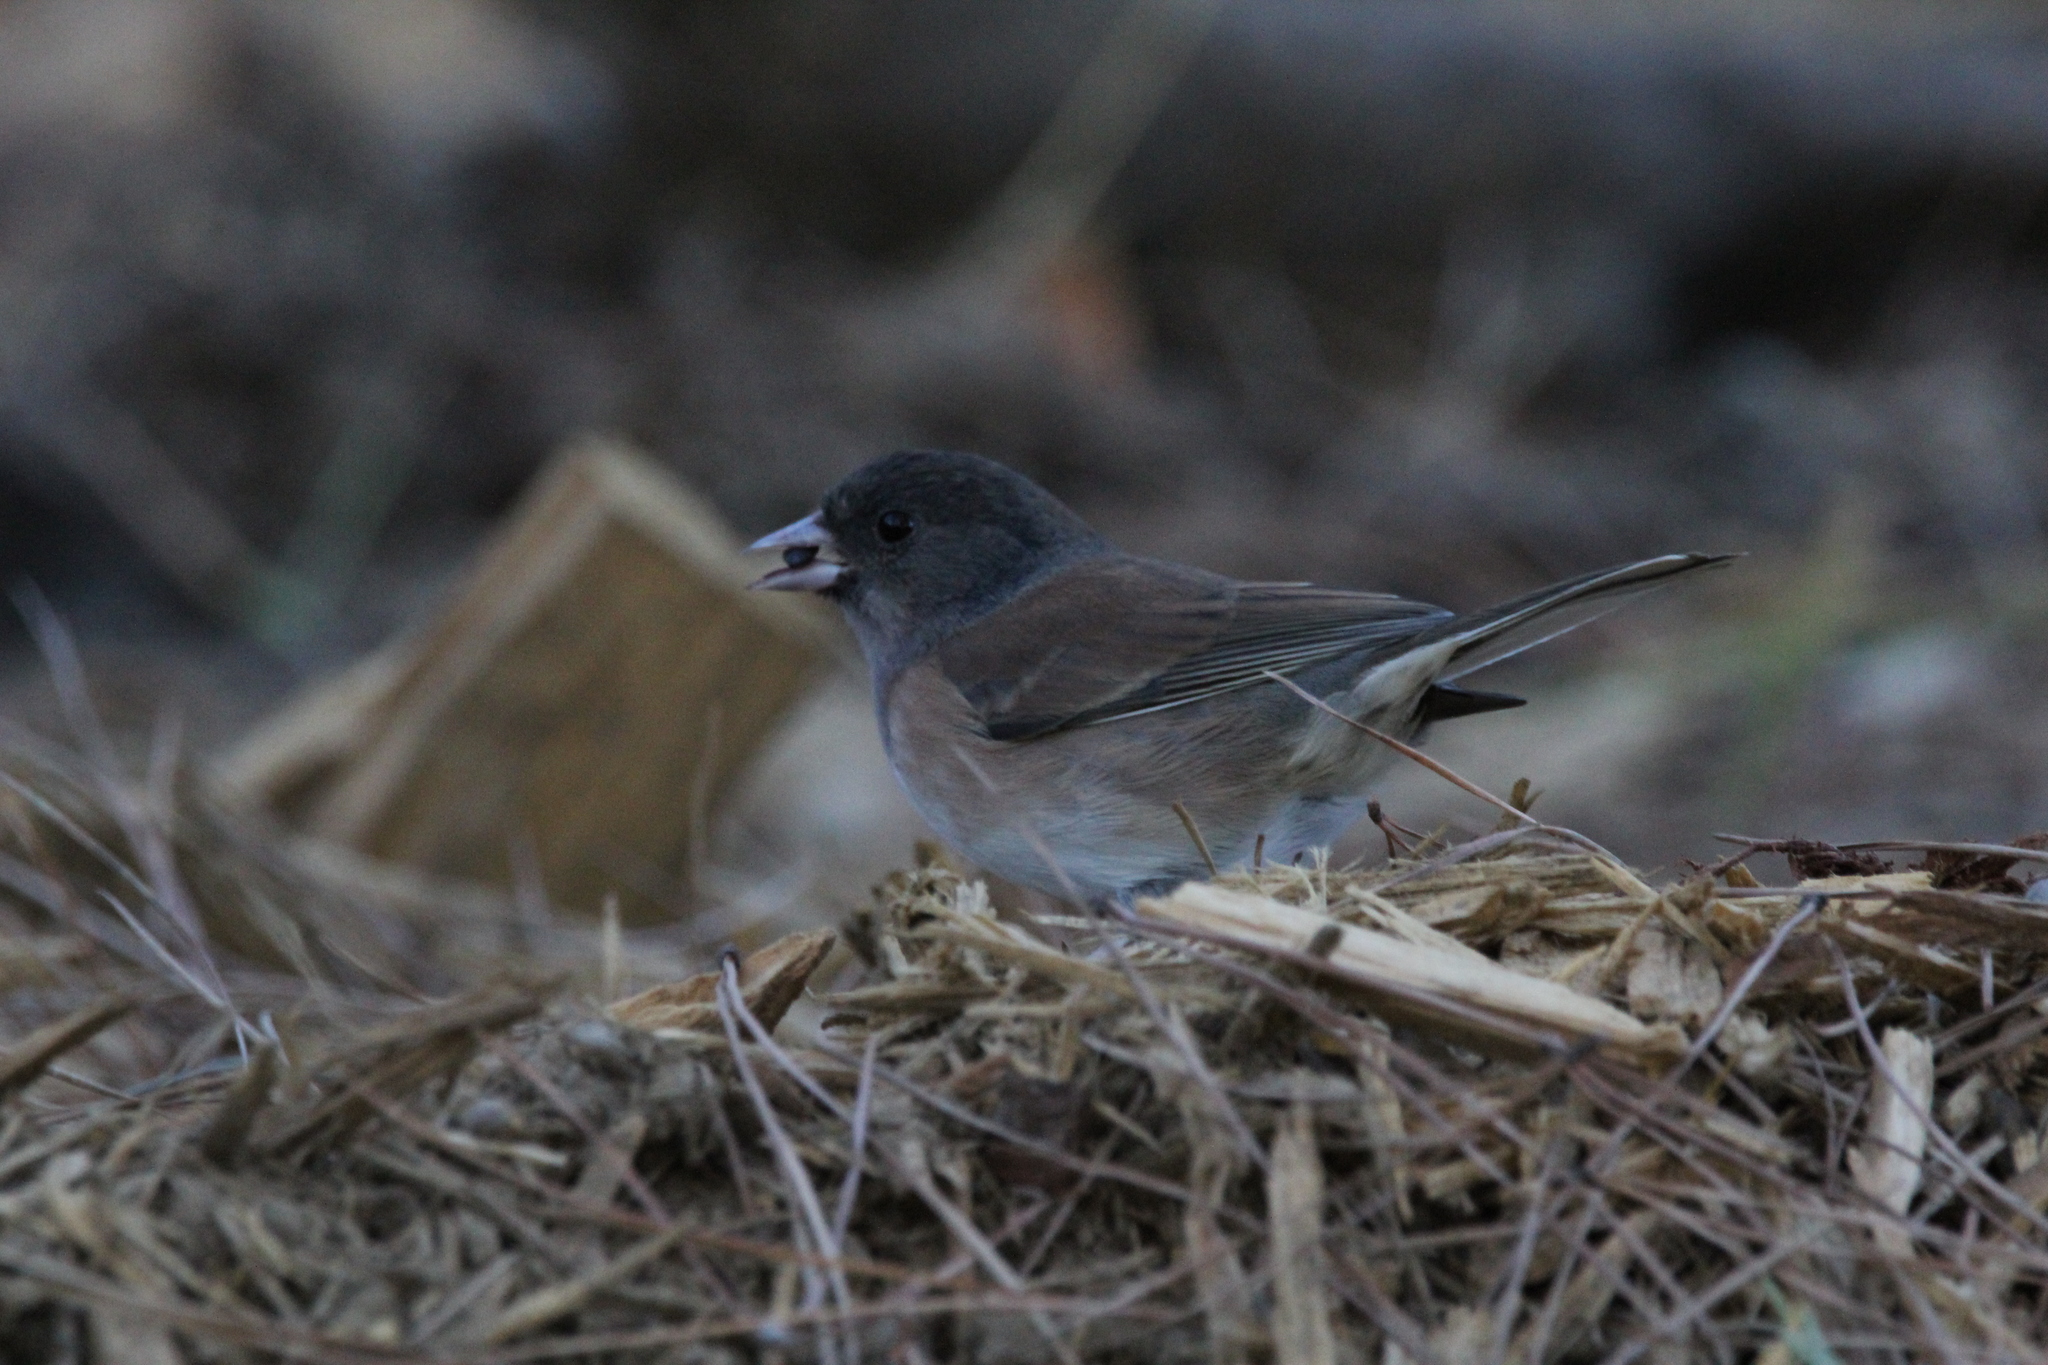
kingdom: Animalia
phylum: Chordata
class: Aves
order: Passeriformes
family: Passerellidae
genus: Junco
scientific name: Junco hyemalis
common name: Dark-eyed junco
